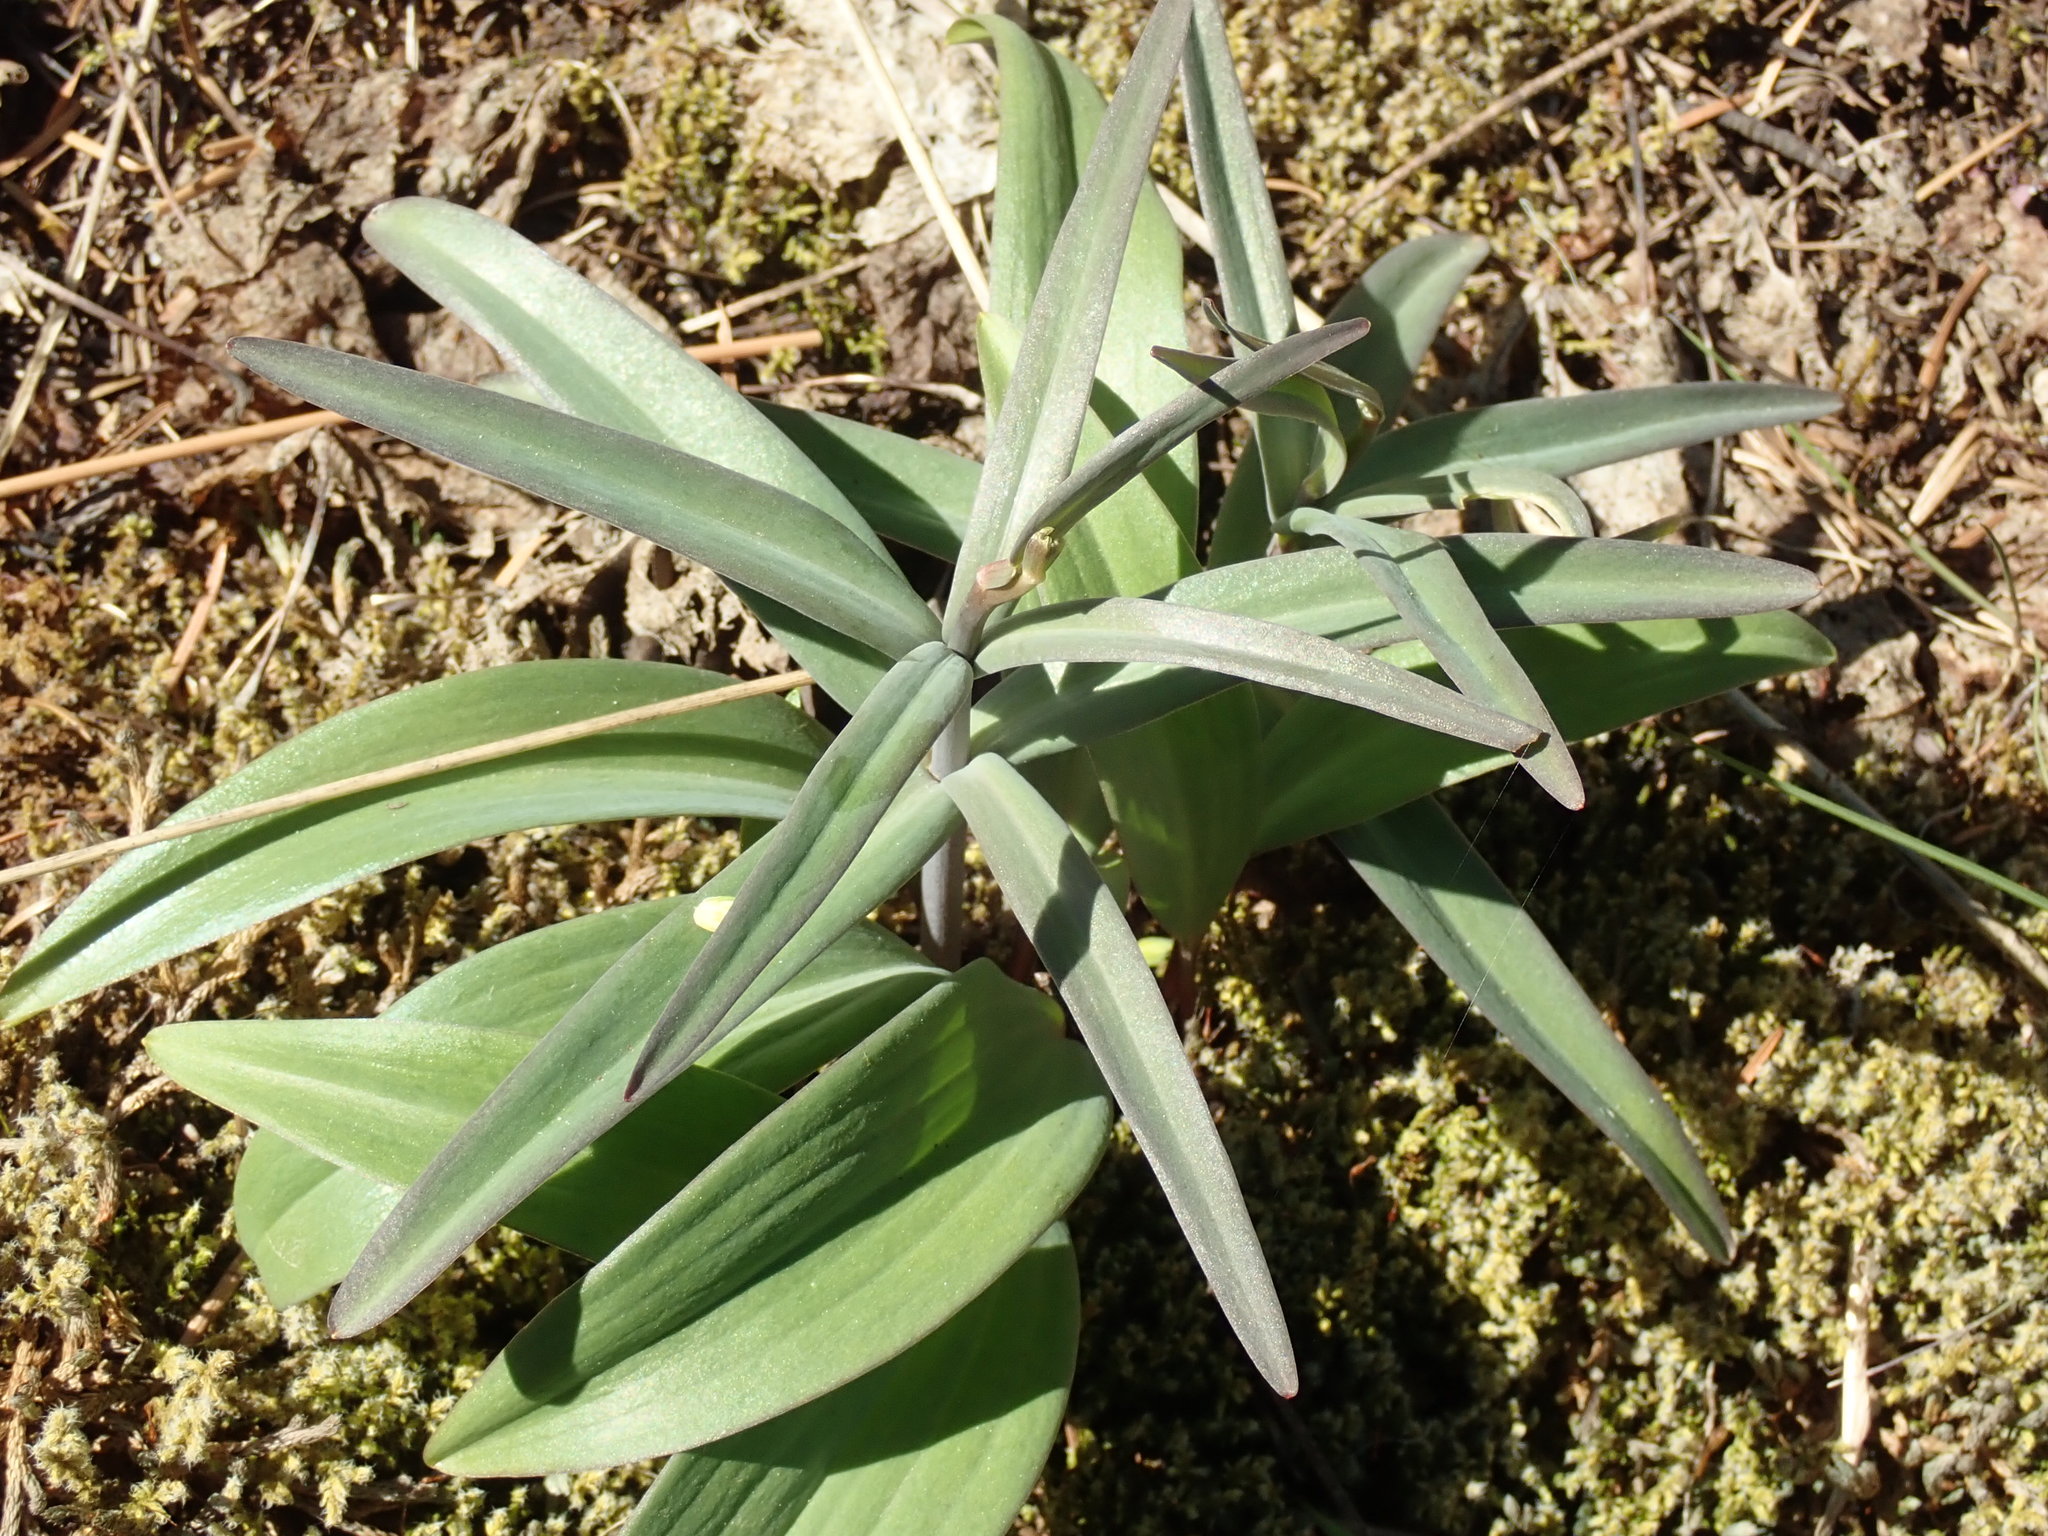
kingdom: Plantae
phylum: Tracheophyta
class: Liliopsida
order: Liliales
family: Liliaceae
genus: Fritillaria
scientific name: Fritillaria affinis
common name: Ojai fritillary
